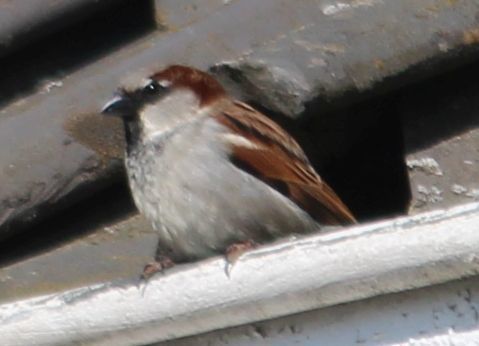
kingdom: Animalia
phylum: Chordata
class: Aves
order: Passeriformes
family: Passeridae
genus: Passer
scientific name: Passer domesticus
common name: House sparrow
